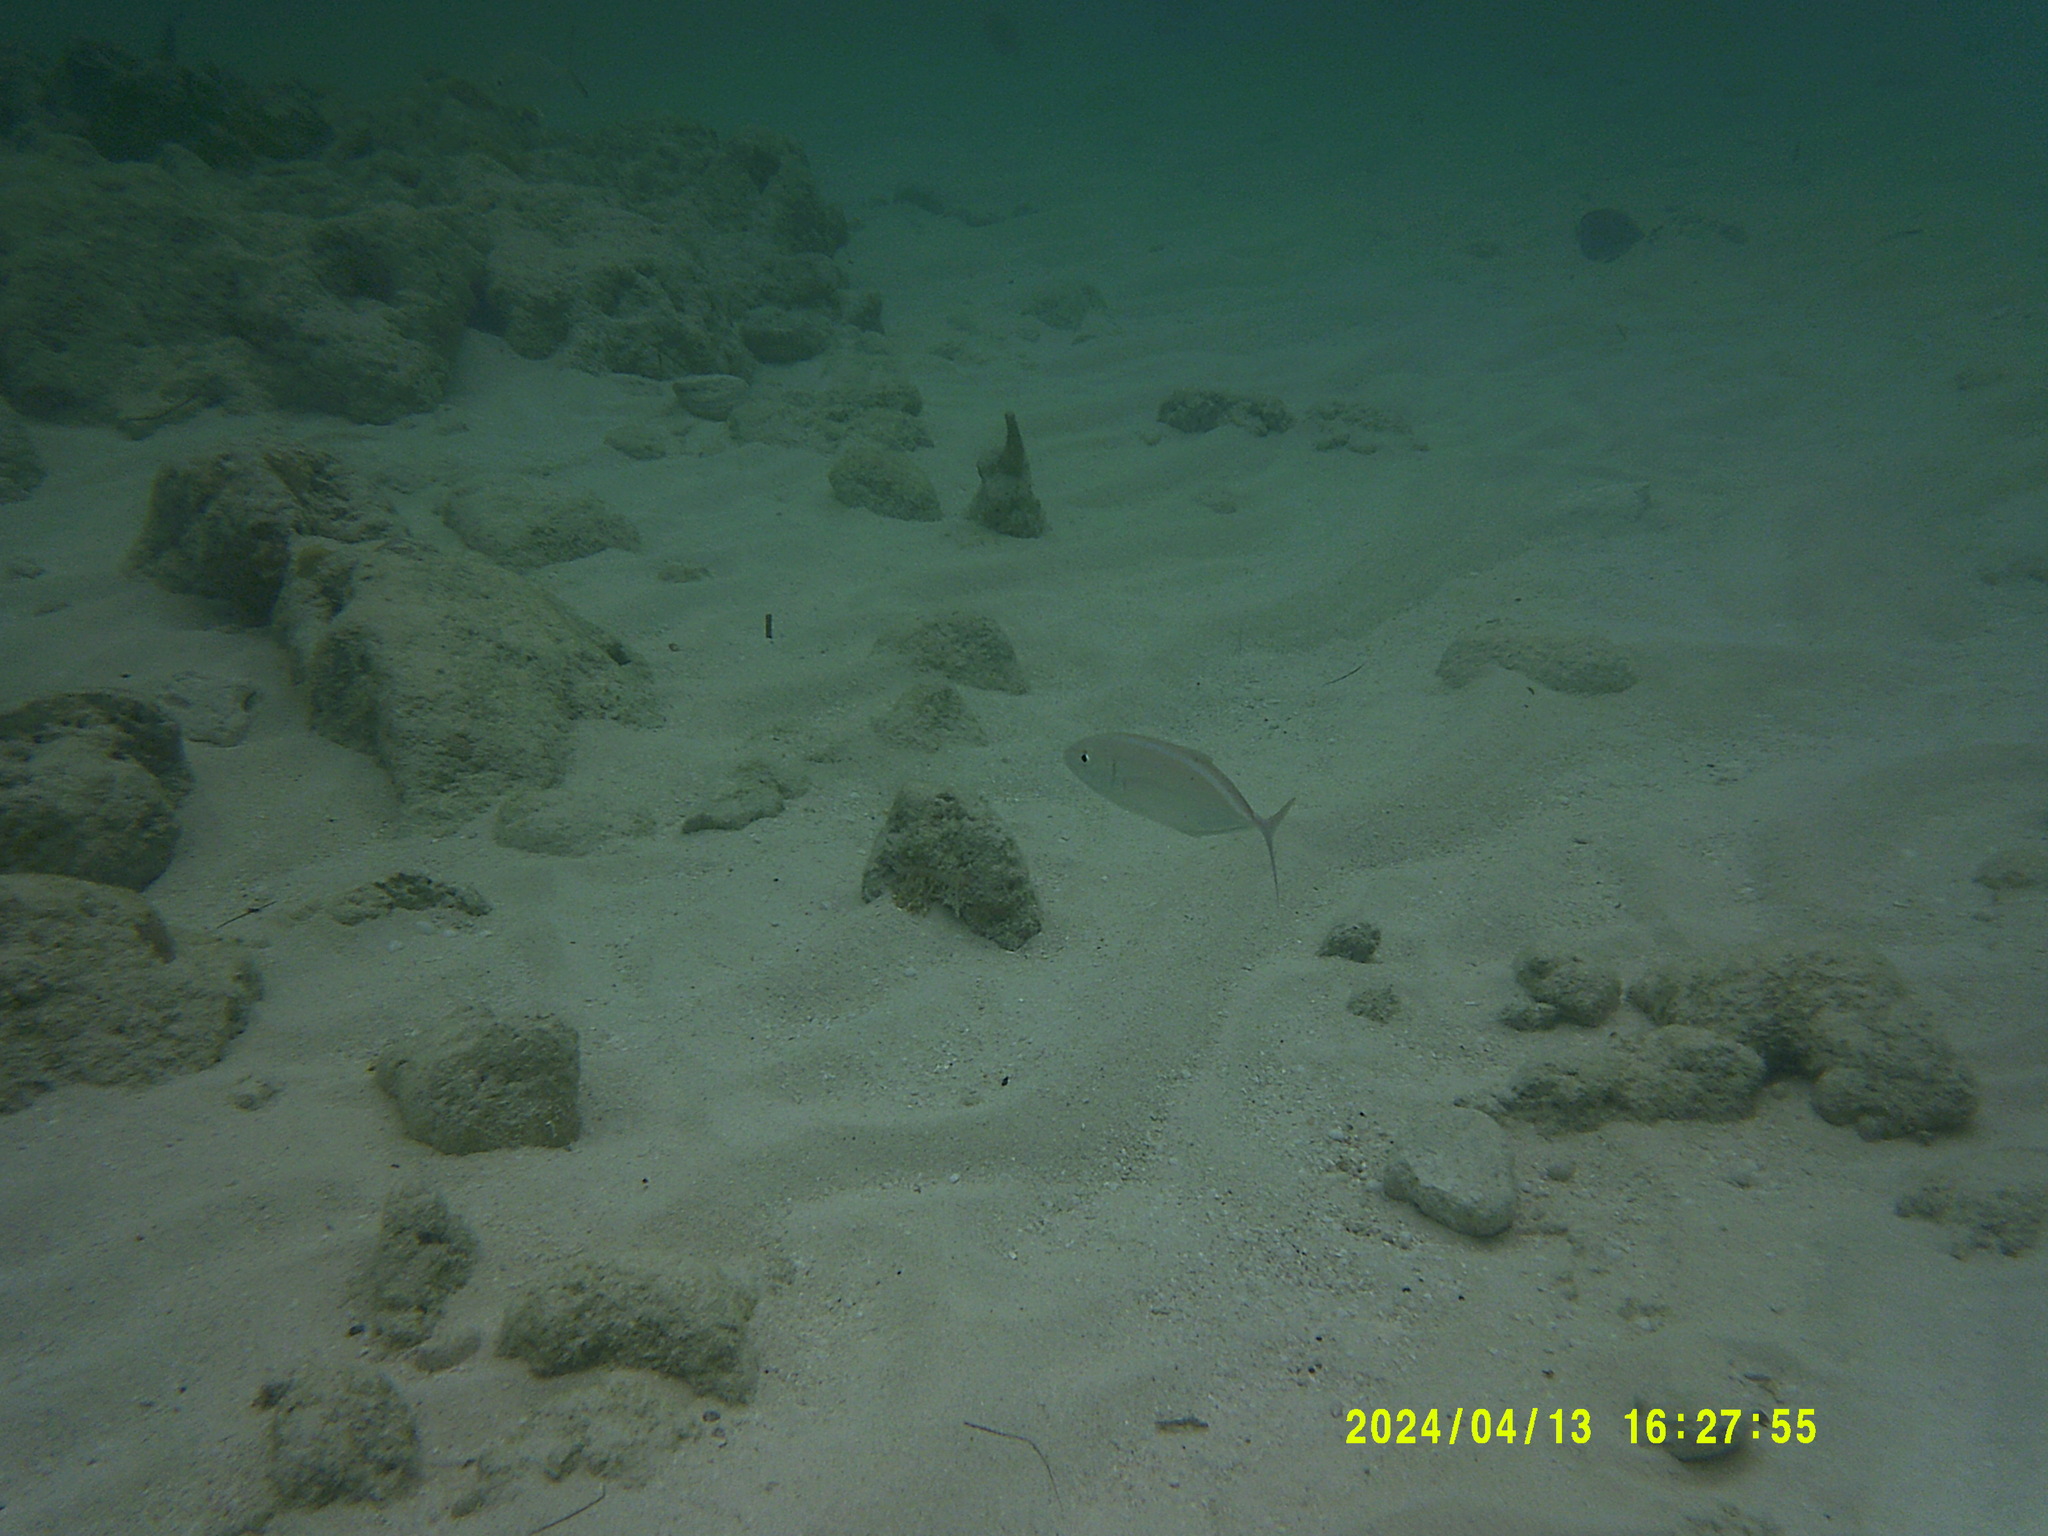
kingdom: Animalia
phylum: Chordata
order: Perciformes
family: Carangidae
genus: Caranx
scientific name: Caranx ruber
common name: Bar jack
